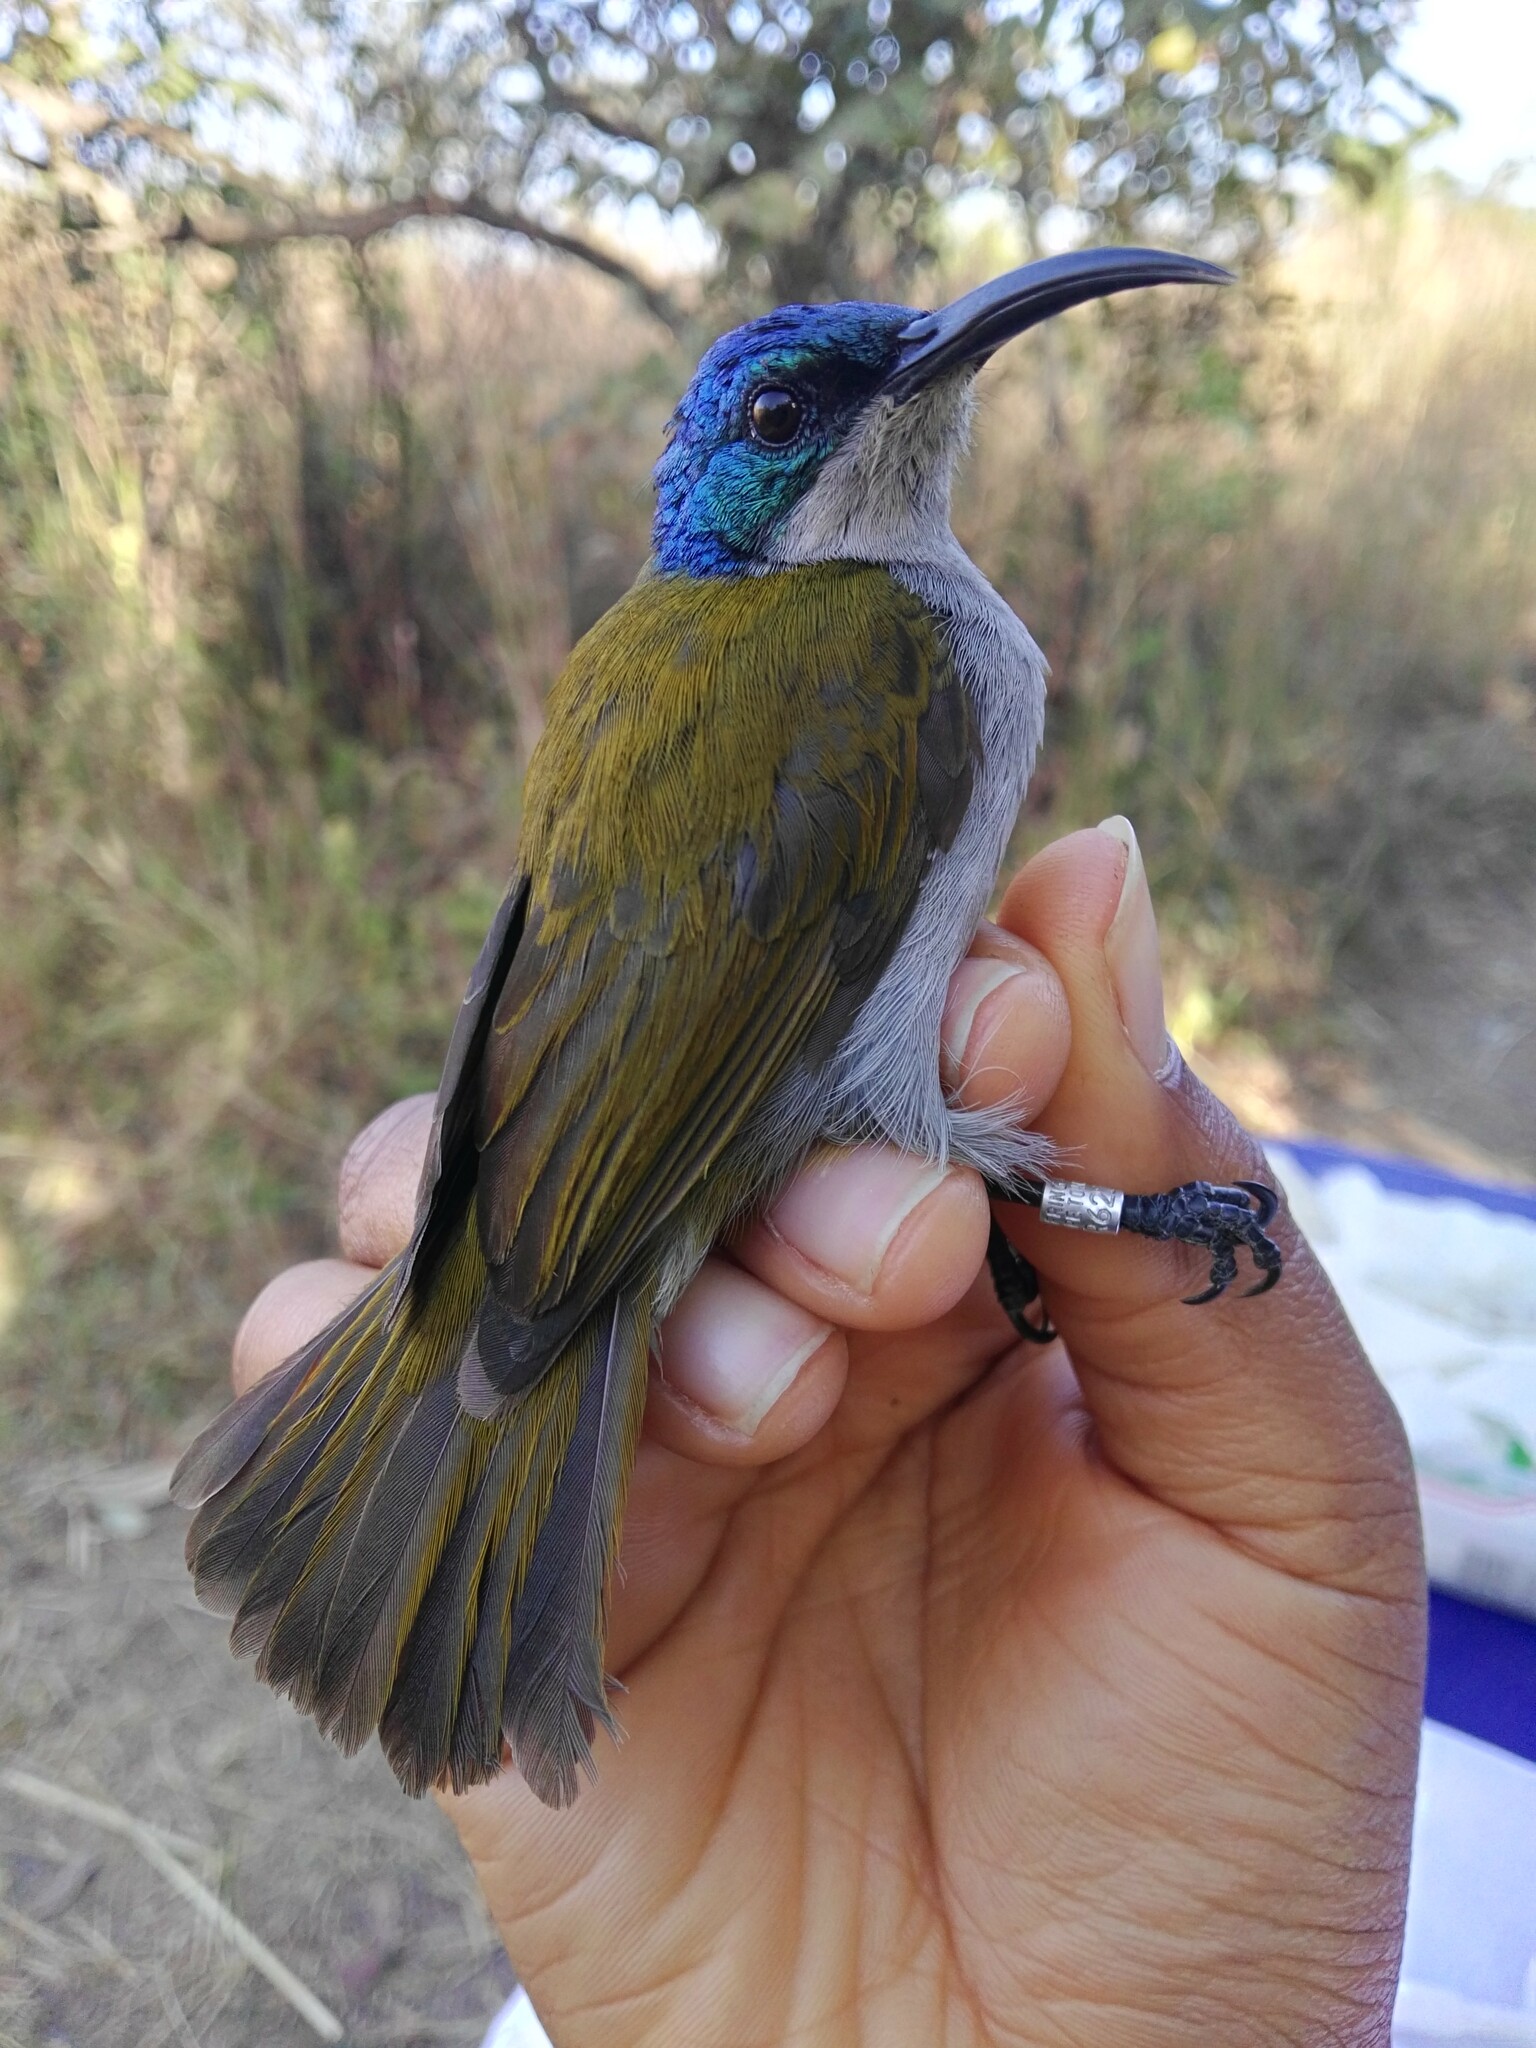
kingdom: Animalia
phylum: Chordata
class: Aves
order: Passeriformes
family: Nectariniidae
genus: Cyanomitra
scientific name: Cyanomitra verticalis
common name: Green-headed sunbird
